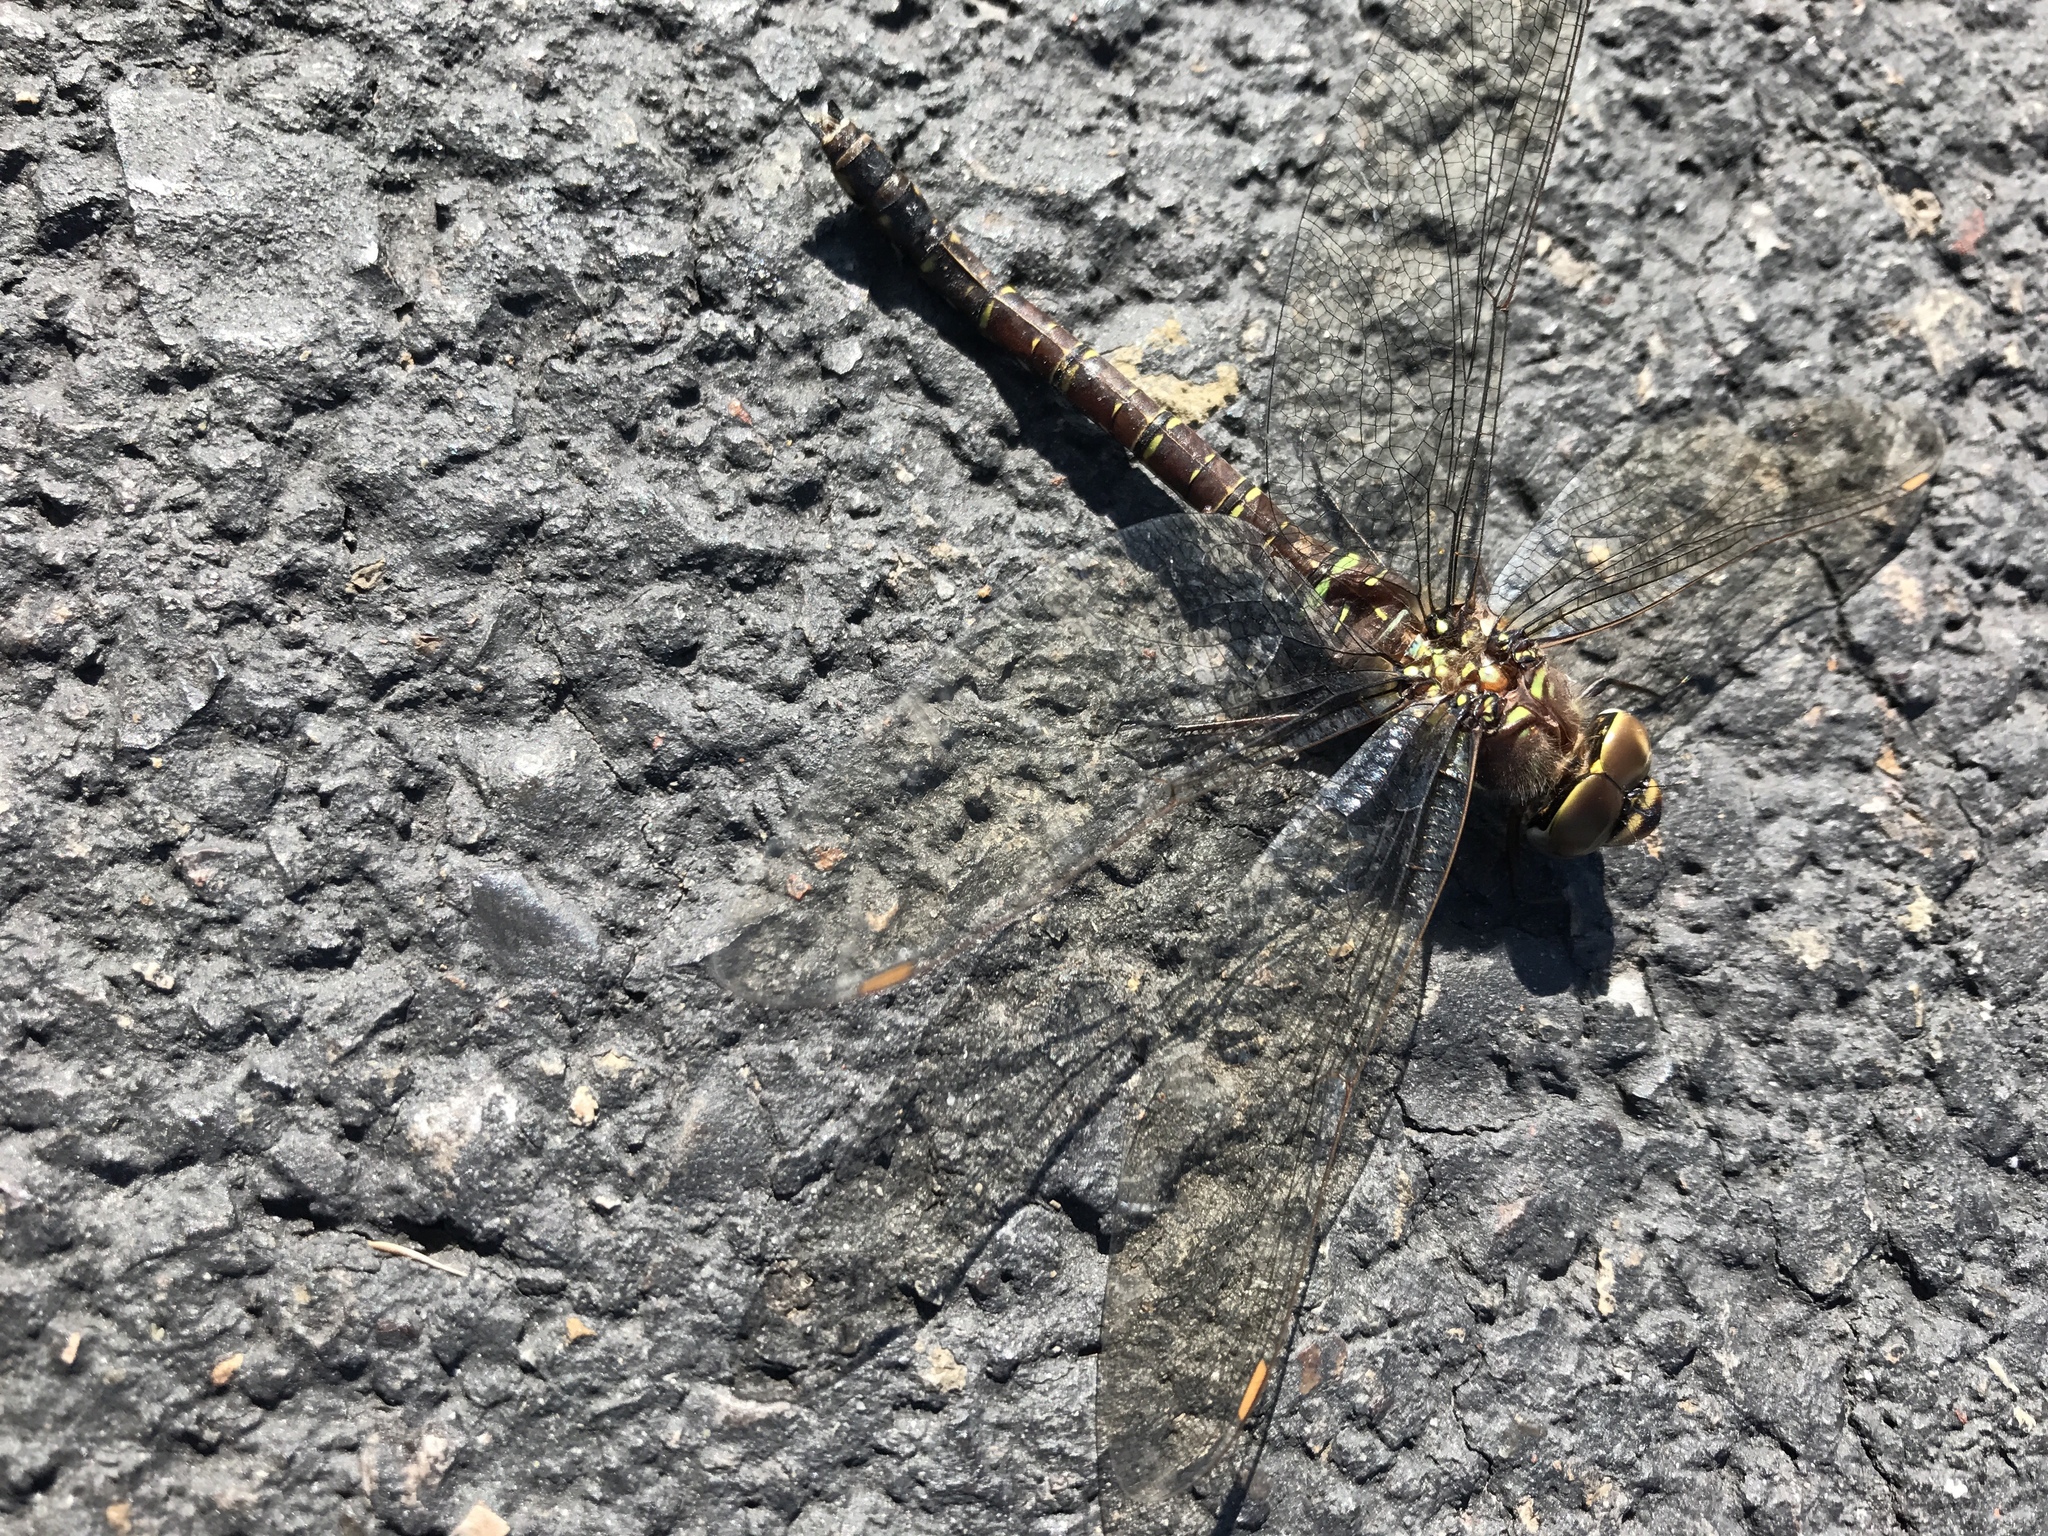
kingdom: Animalia
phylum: Arthropoda
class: Insecta
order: Odonata
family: Aeshnidae
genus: Aeshna
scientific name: Aeshna umbrosa
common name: Shadow darner
